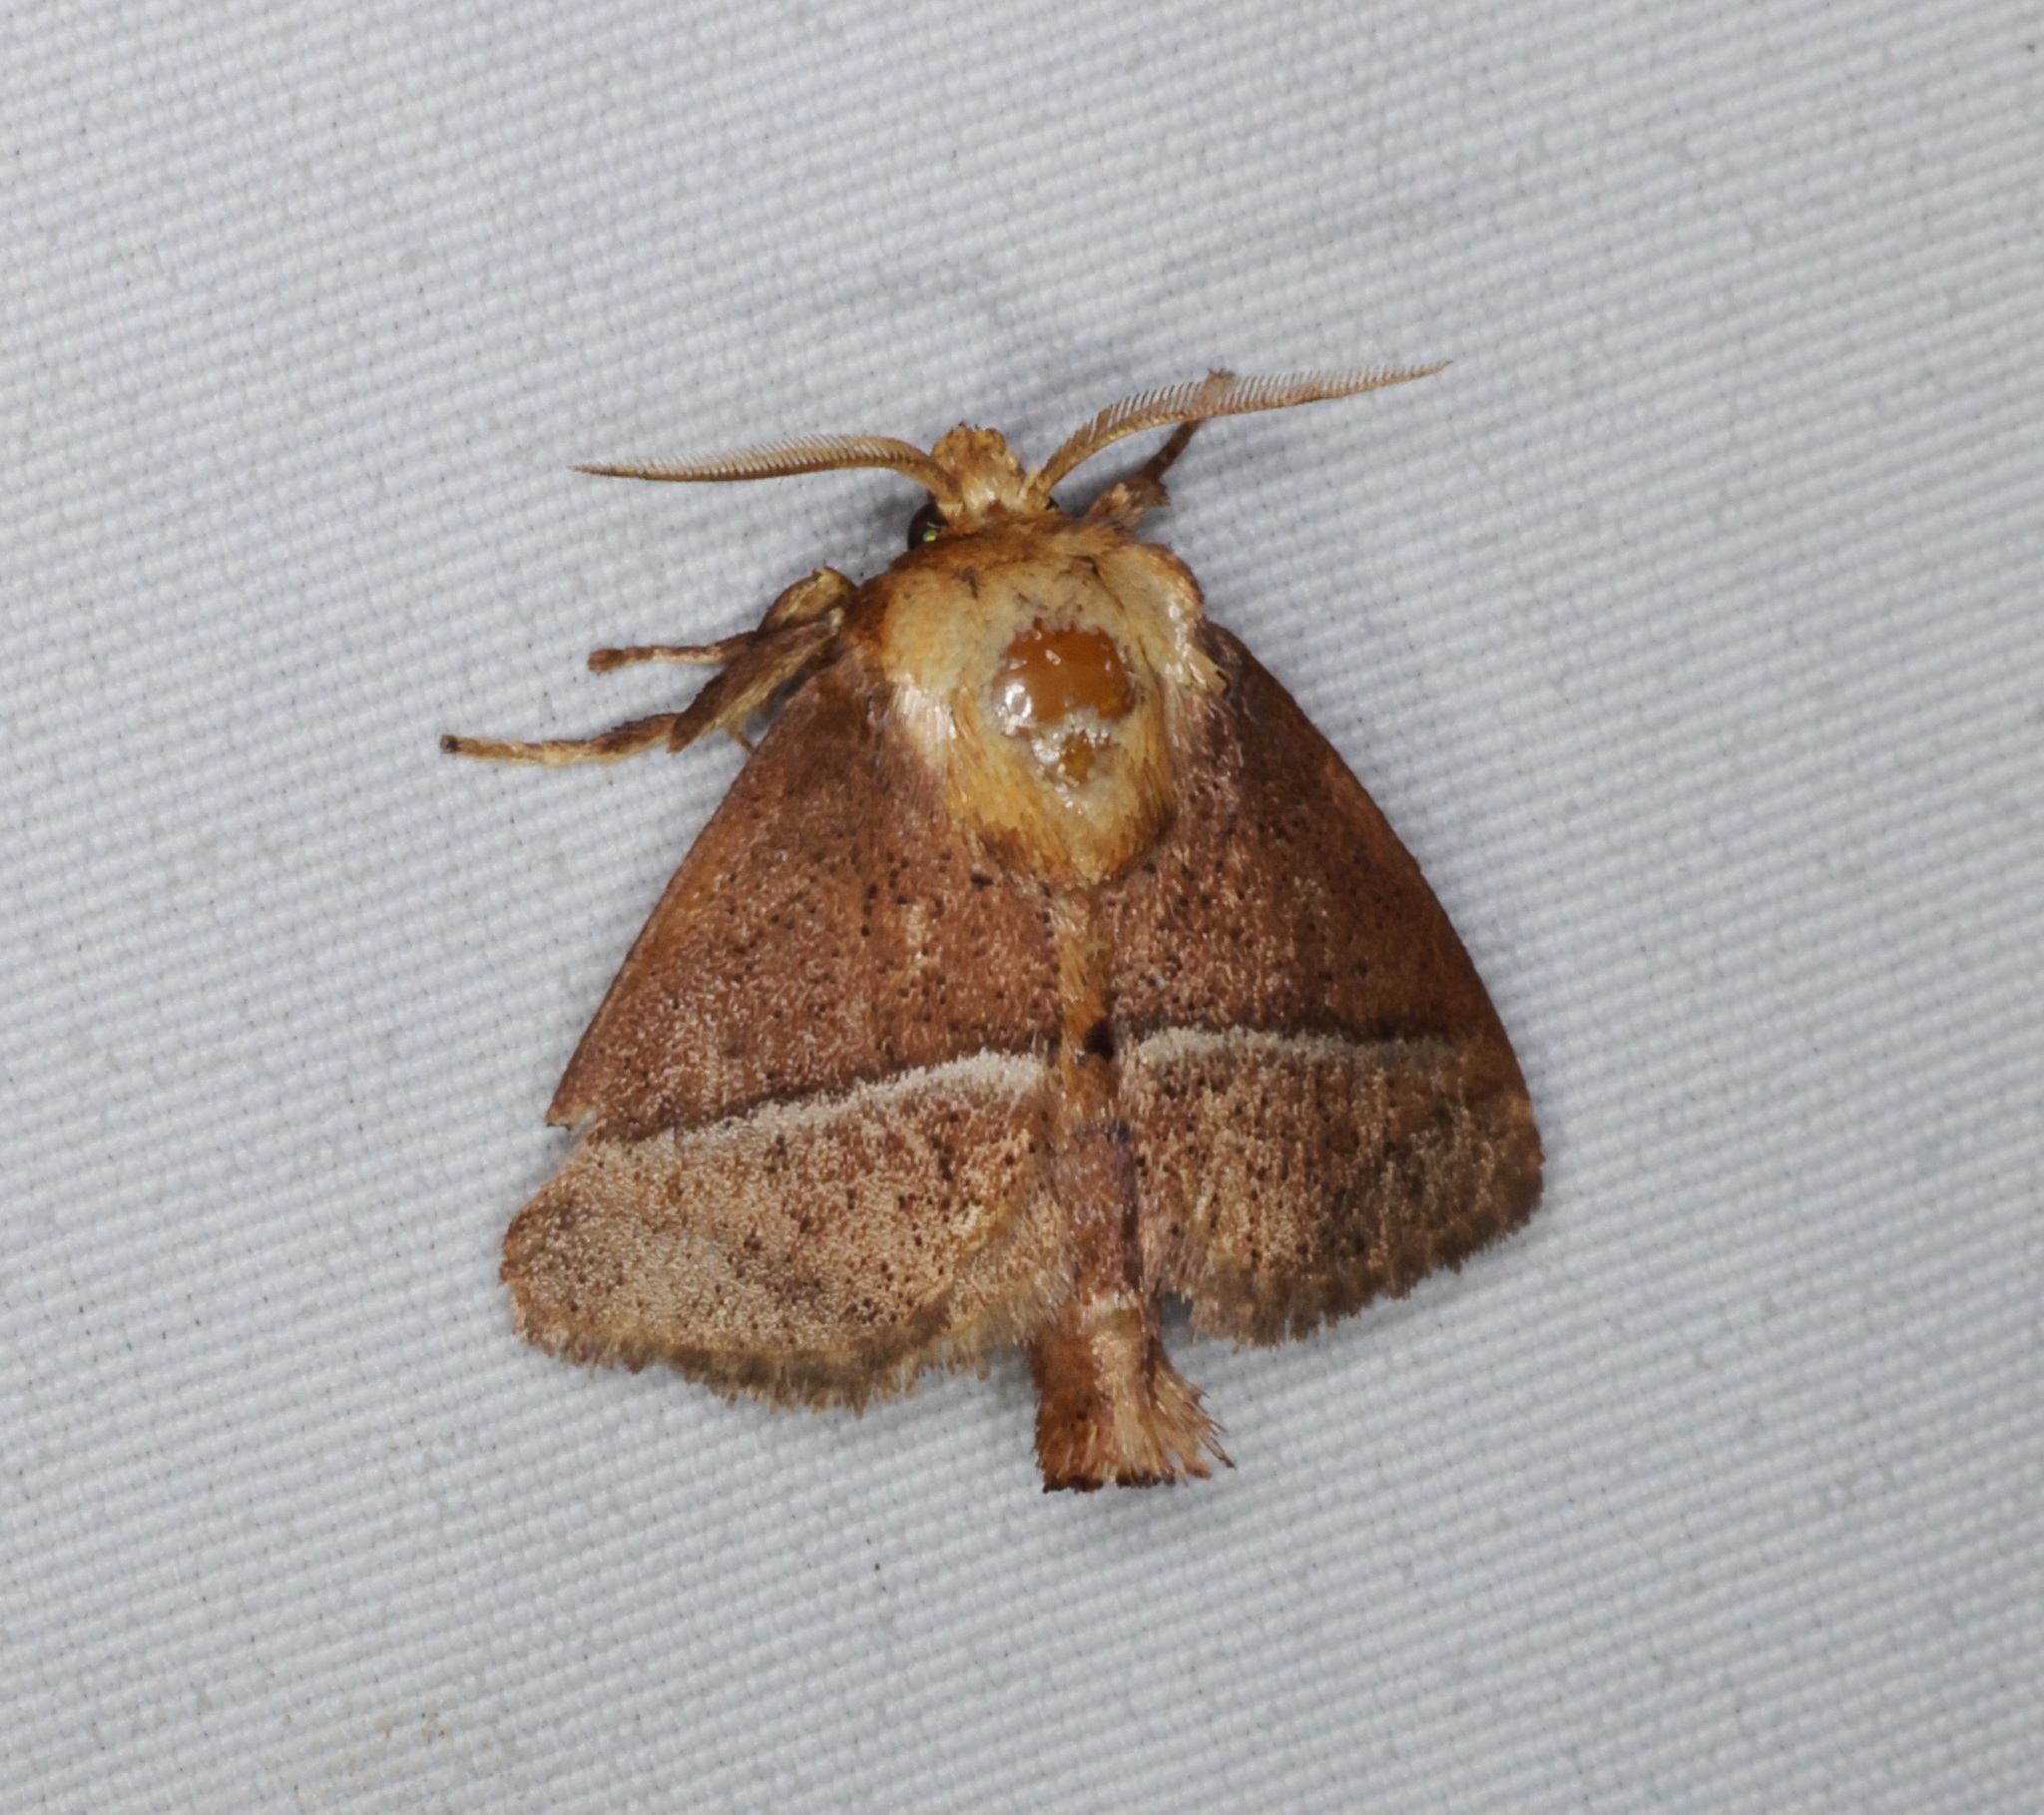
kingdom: Animalia
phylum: Arthropoda
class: Insecta
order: Lepidoptera
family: Limacodidae
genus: Birthamula
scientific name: Birthamula rufa
